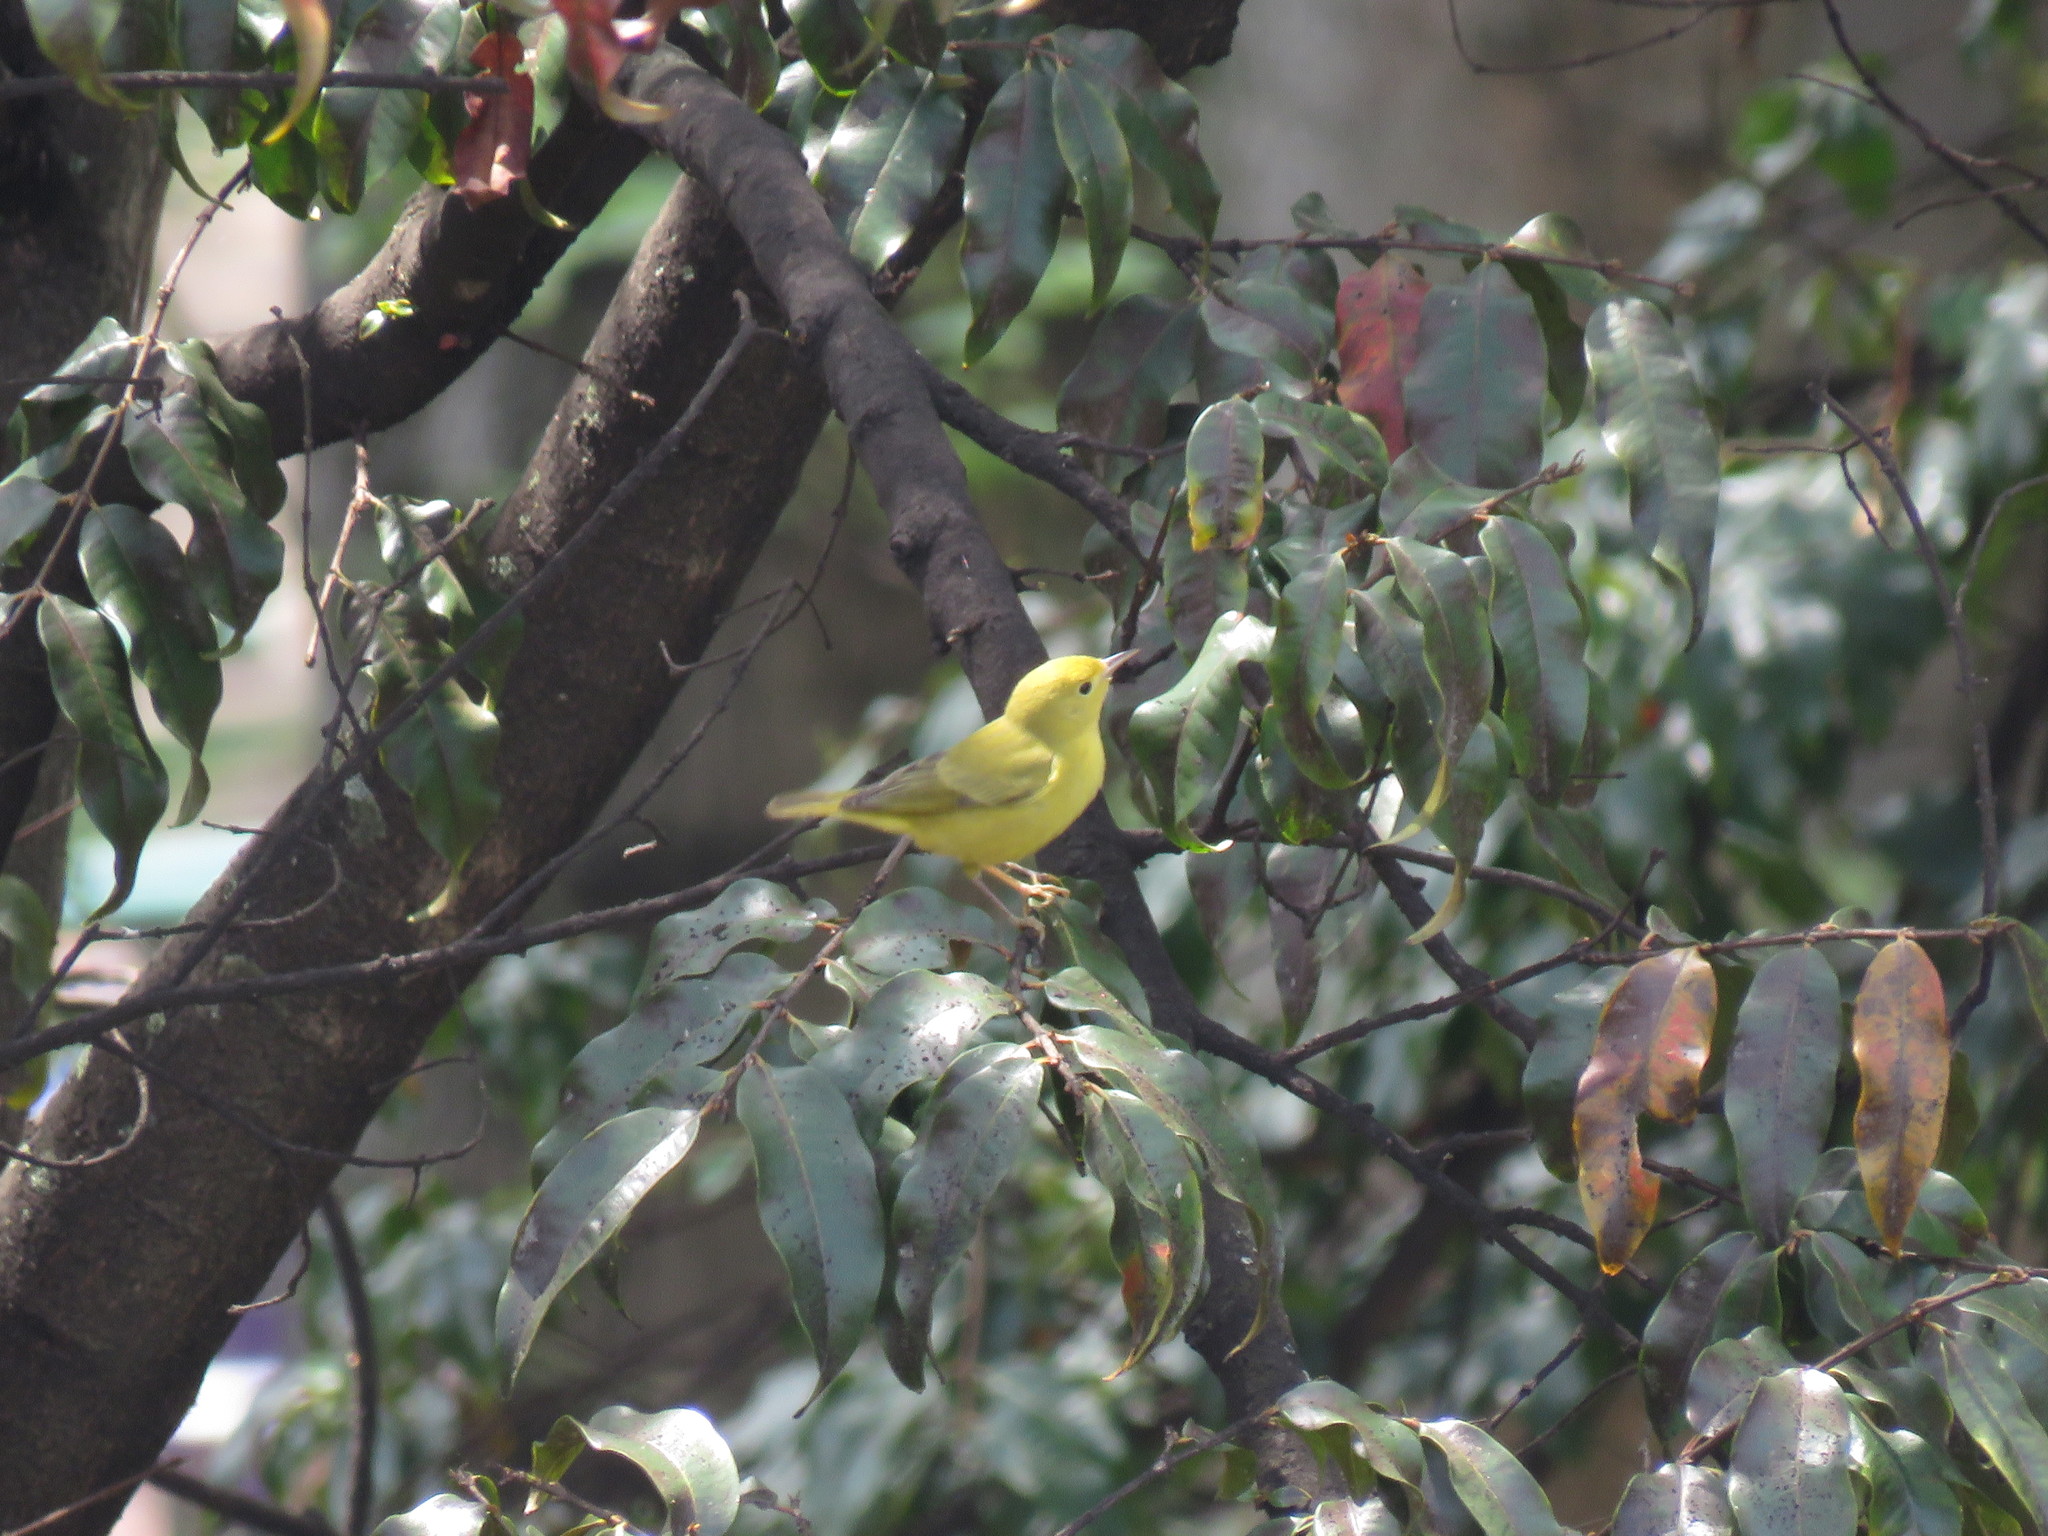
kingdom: Animalia
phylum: Chordata
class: Aves
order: Passeriformes
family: Parulidae
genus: Setophaga
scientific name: Setophaga petechia
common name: Yellow warbler
